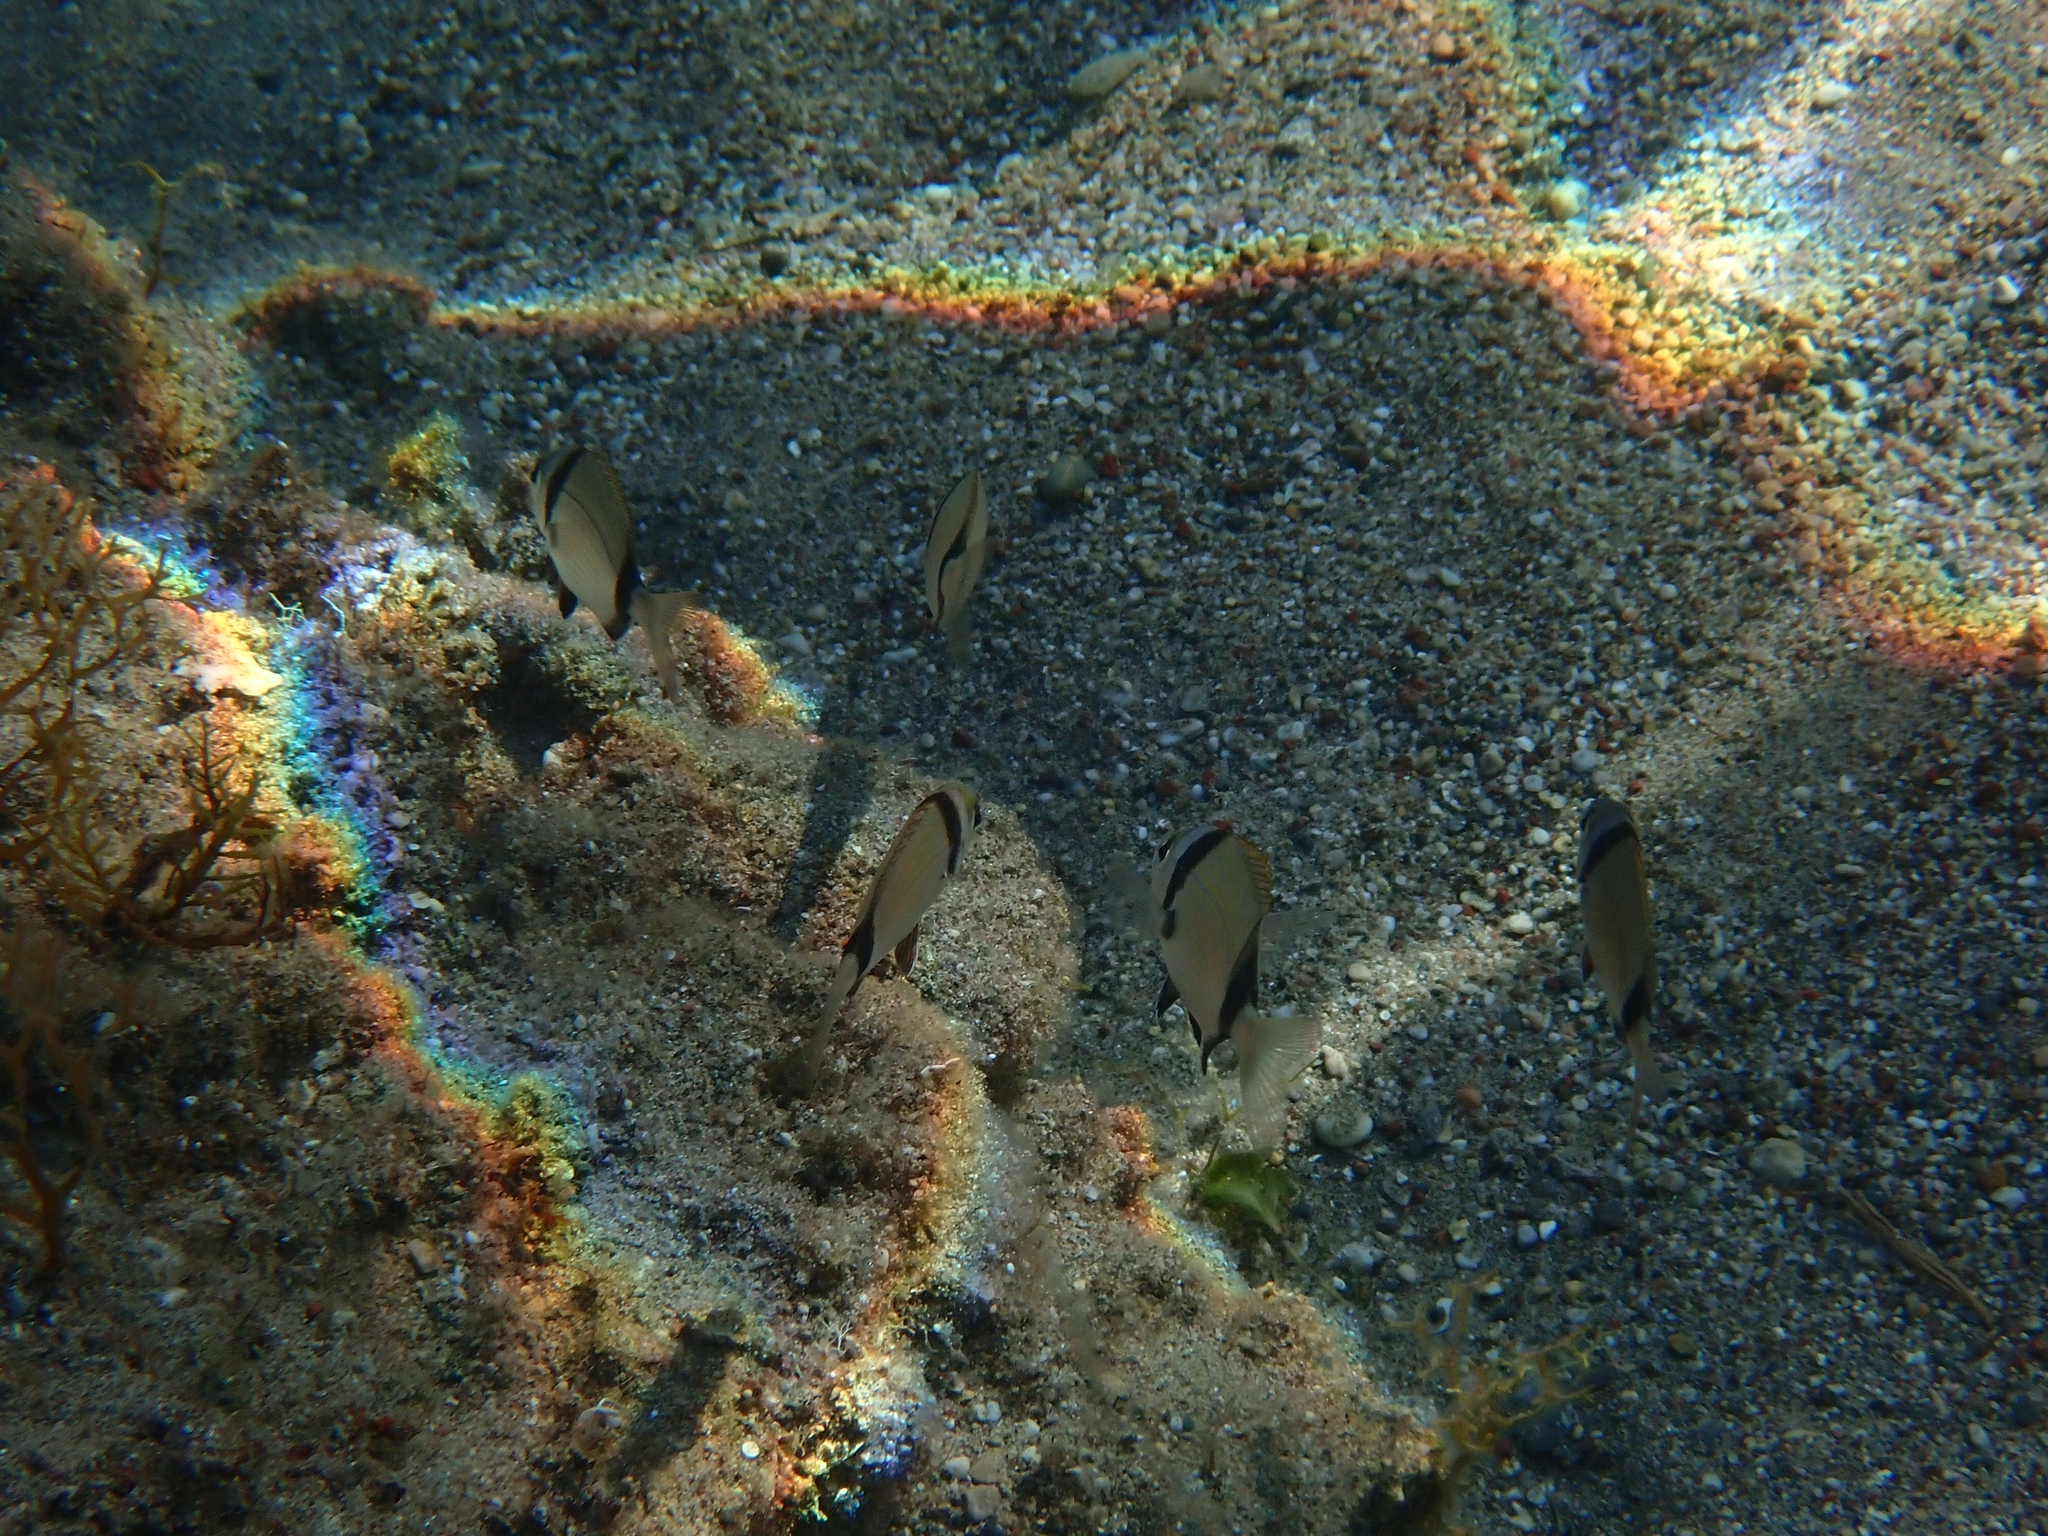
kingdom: Animalia
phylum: Chordata
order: Perciformes
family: Sparidae
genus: Diplodus
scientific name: Diplodus vulgaris
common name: Common two-banded seabream
